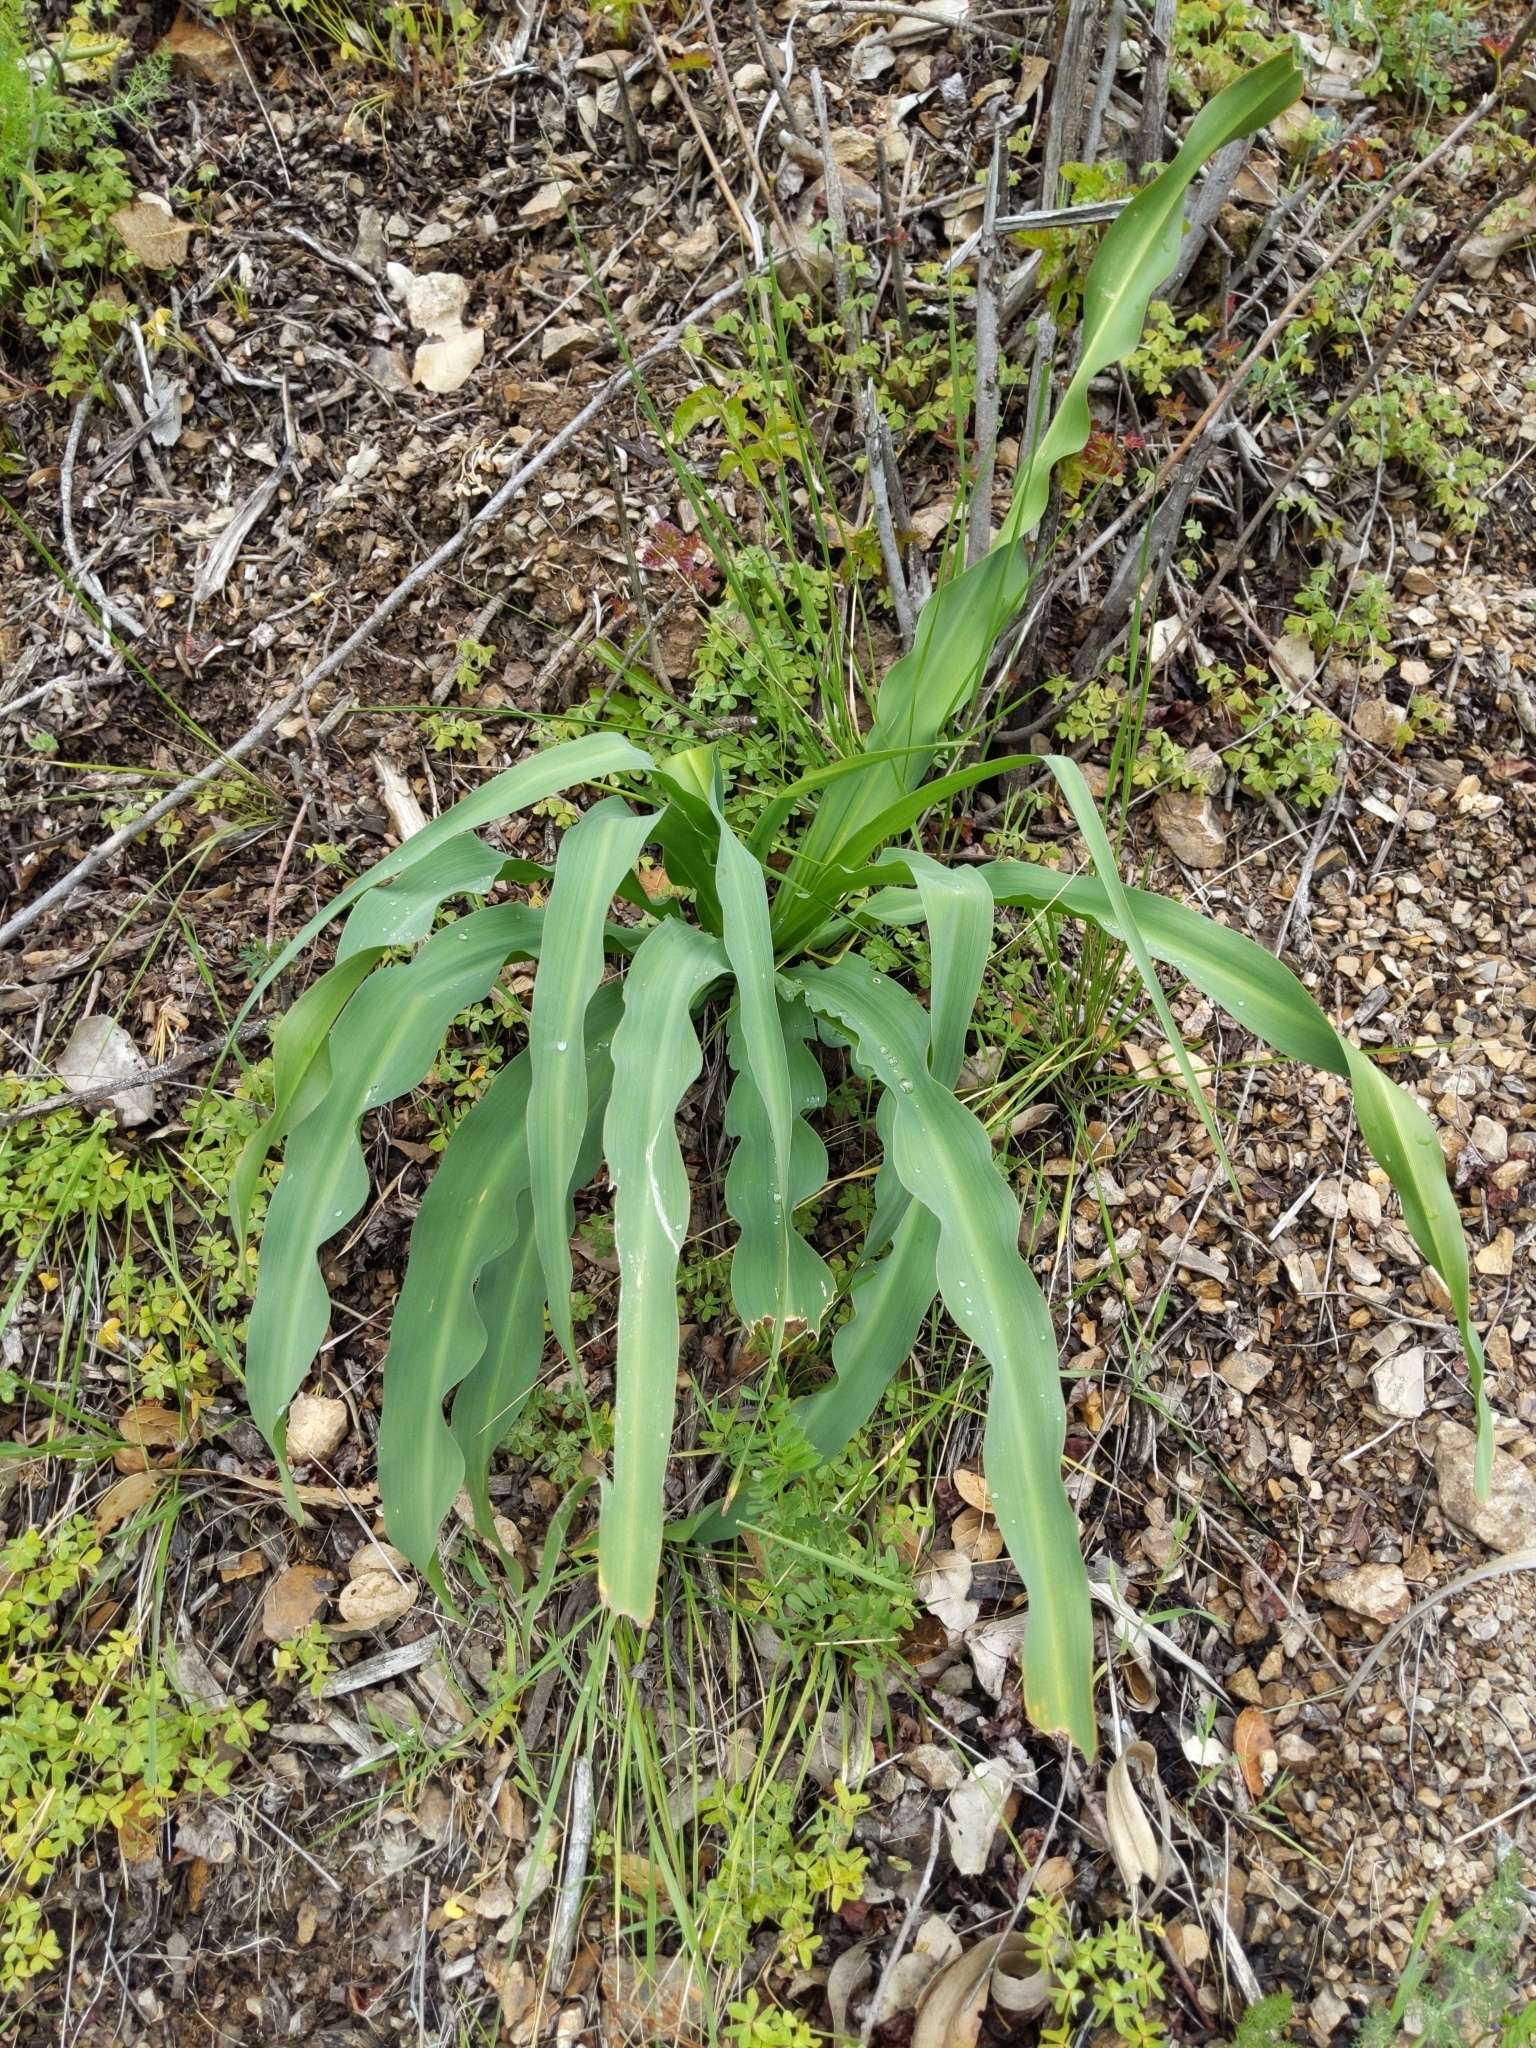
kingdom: Plantae
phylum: Tracheophyta
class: Liliopsida
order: Asparagales
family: Asparagaceae
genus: Chlorogalum
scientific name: Chlorogalum pomeridianum
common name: Amole
